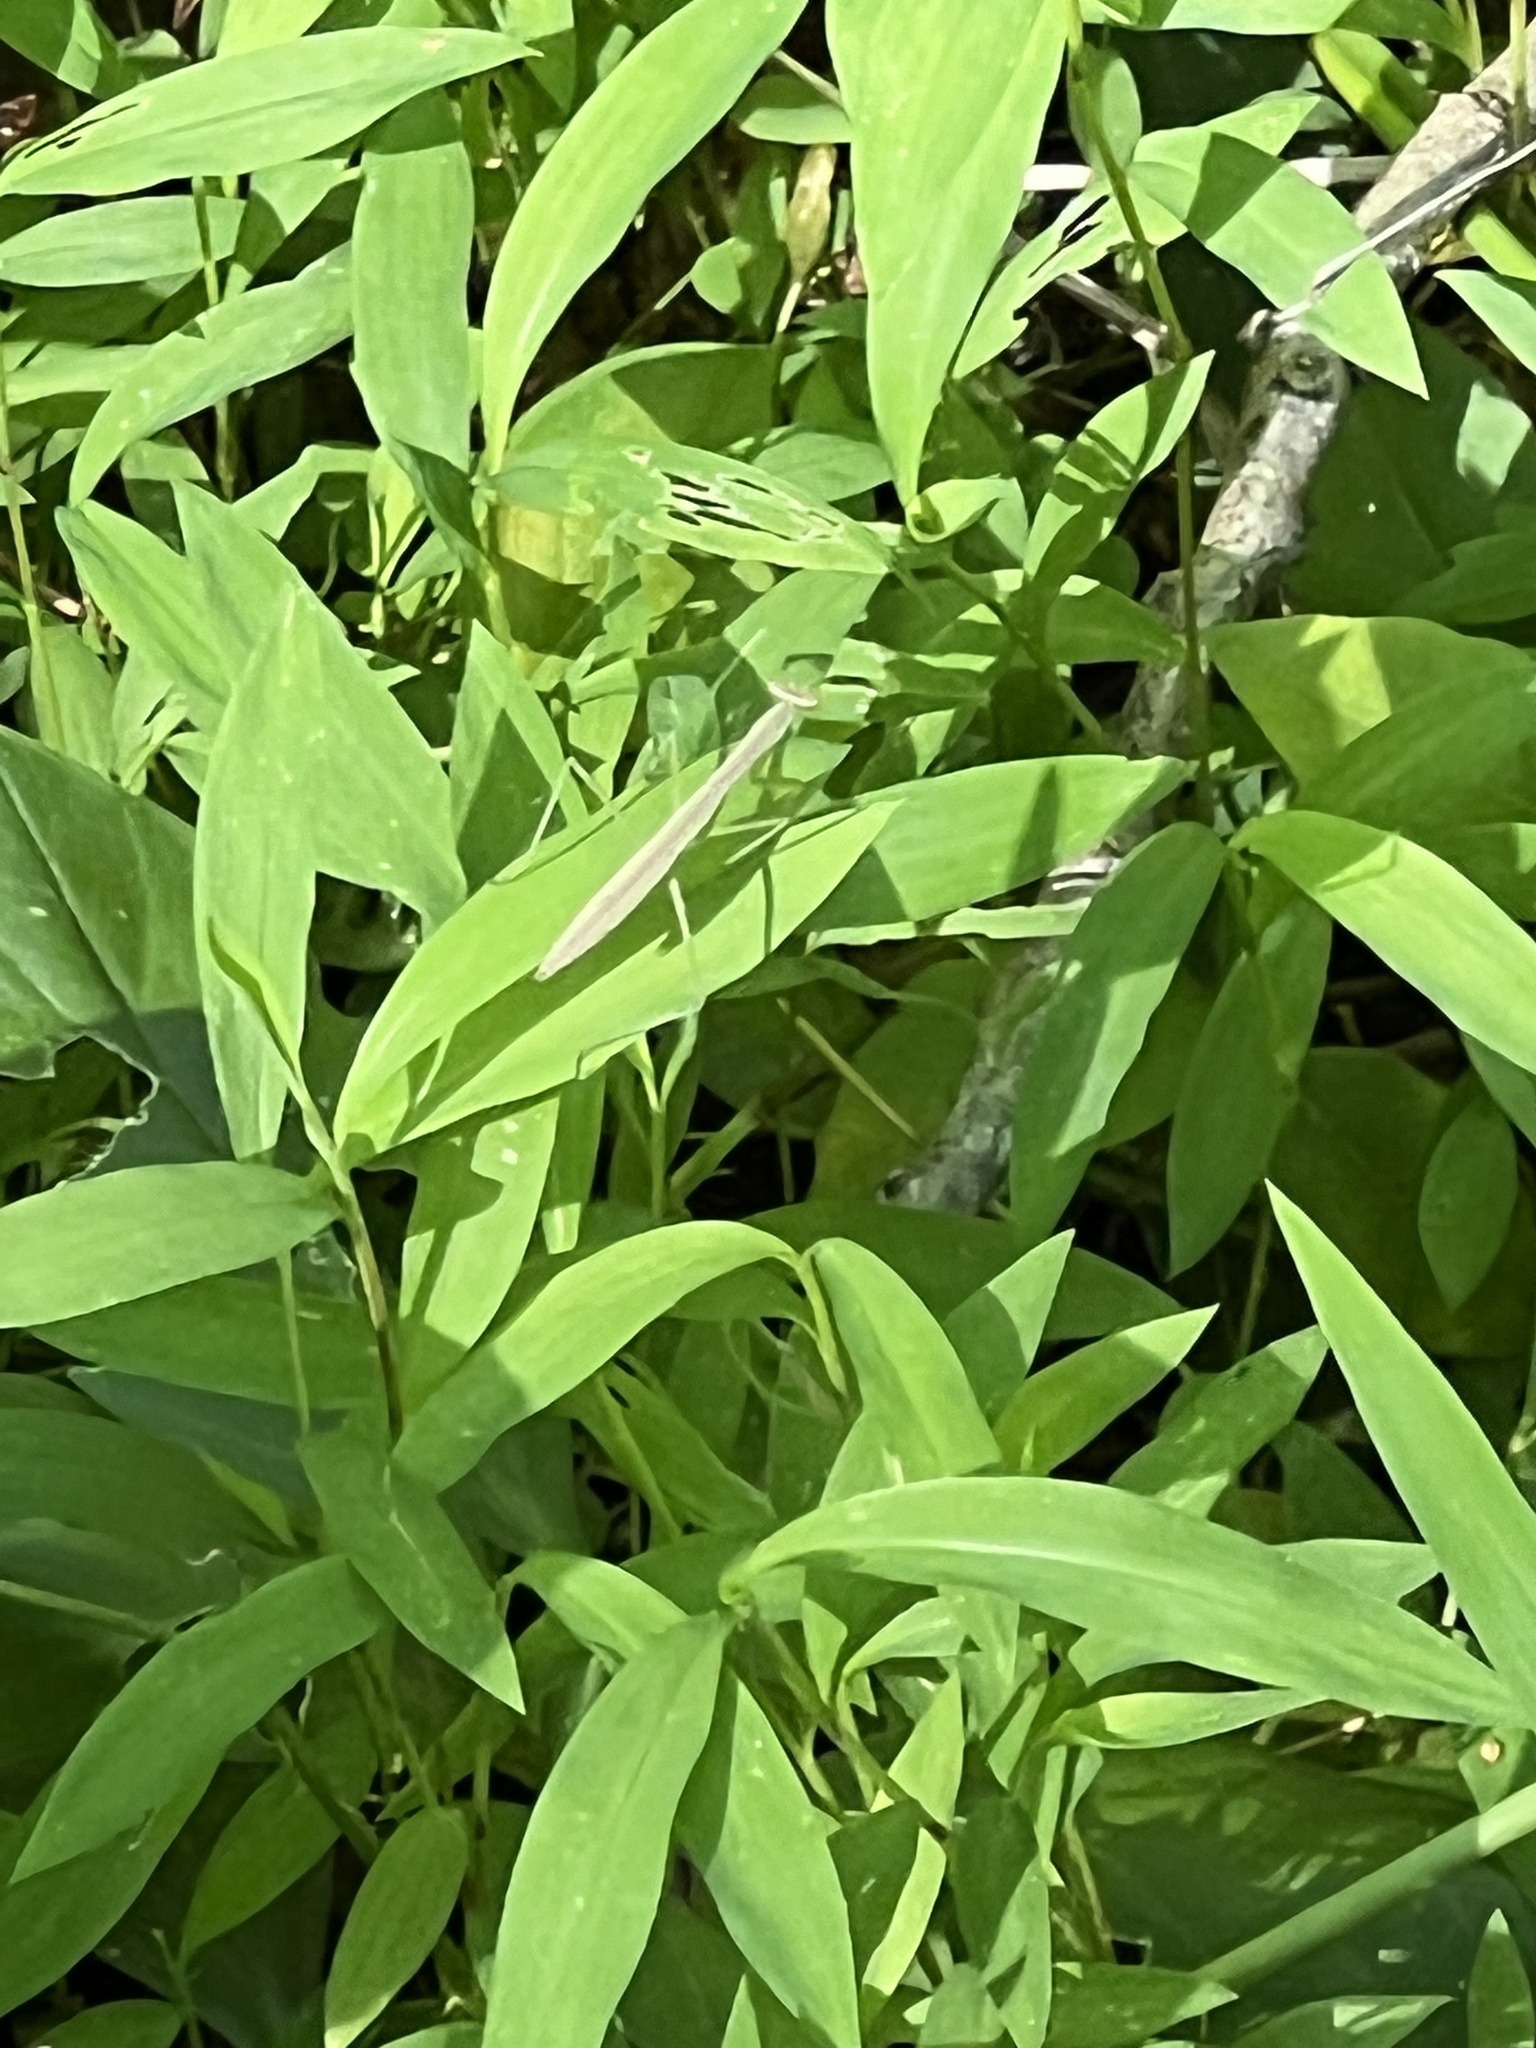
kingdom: Animalia
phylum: Arthropoda
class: Insecta
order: Mantodea
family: Mantidae
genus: Tenodera
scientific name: Tenodera sinensis
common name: Chinese mantis
